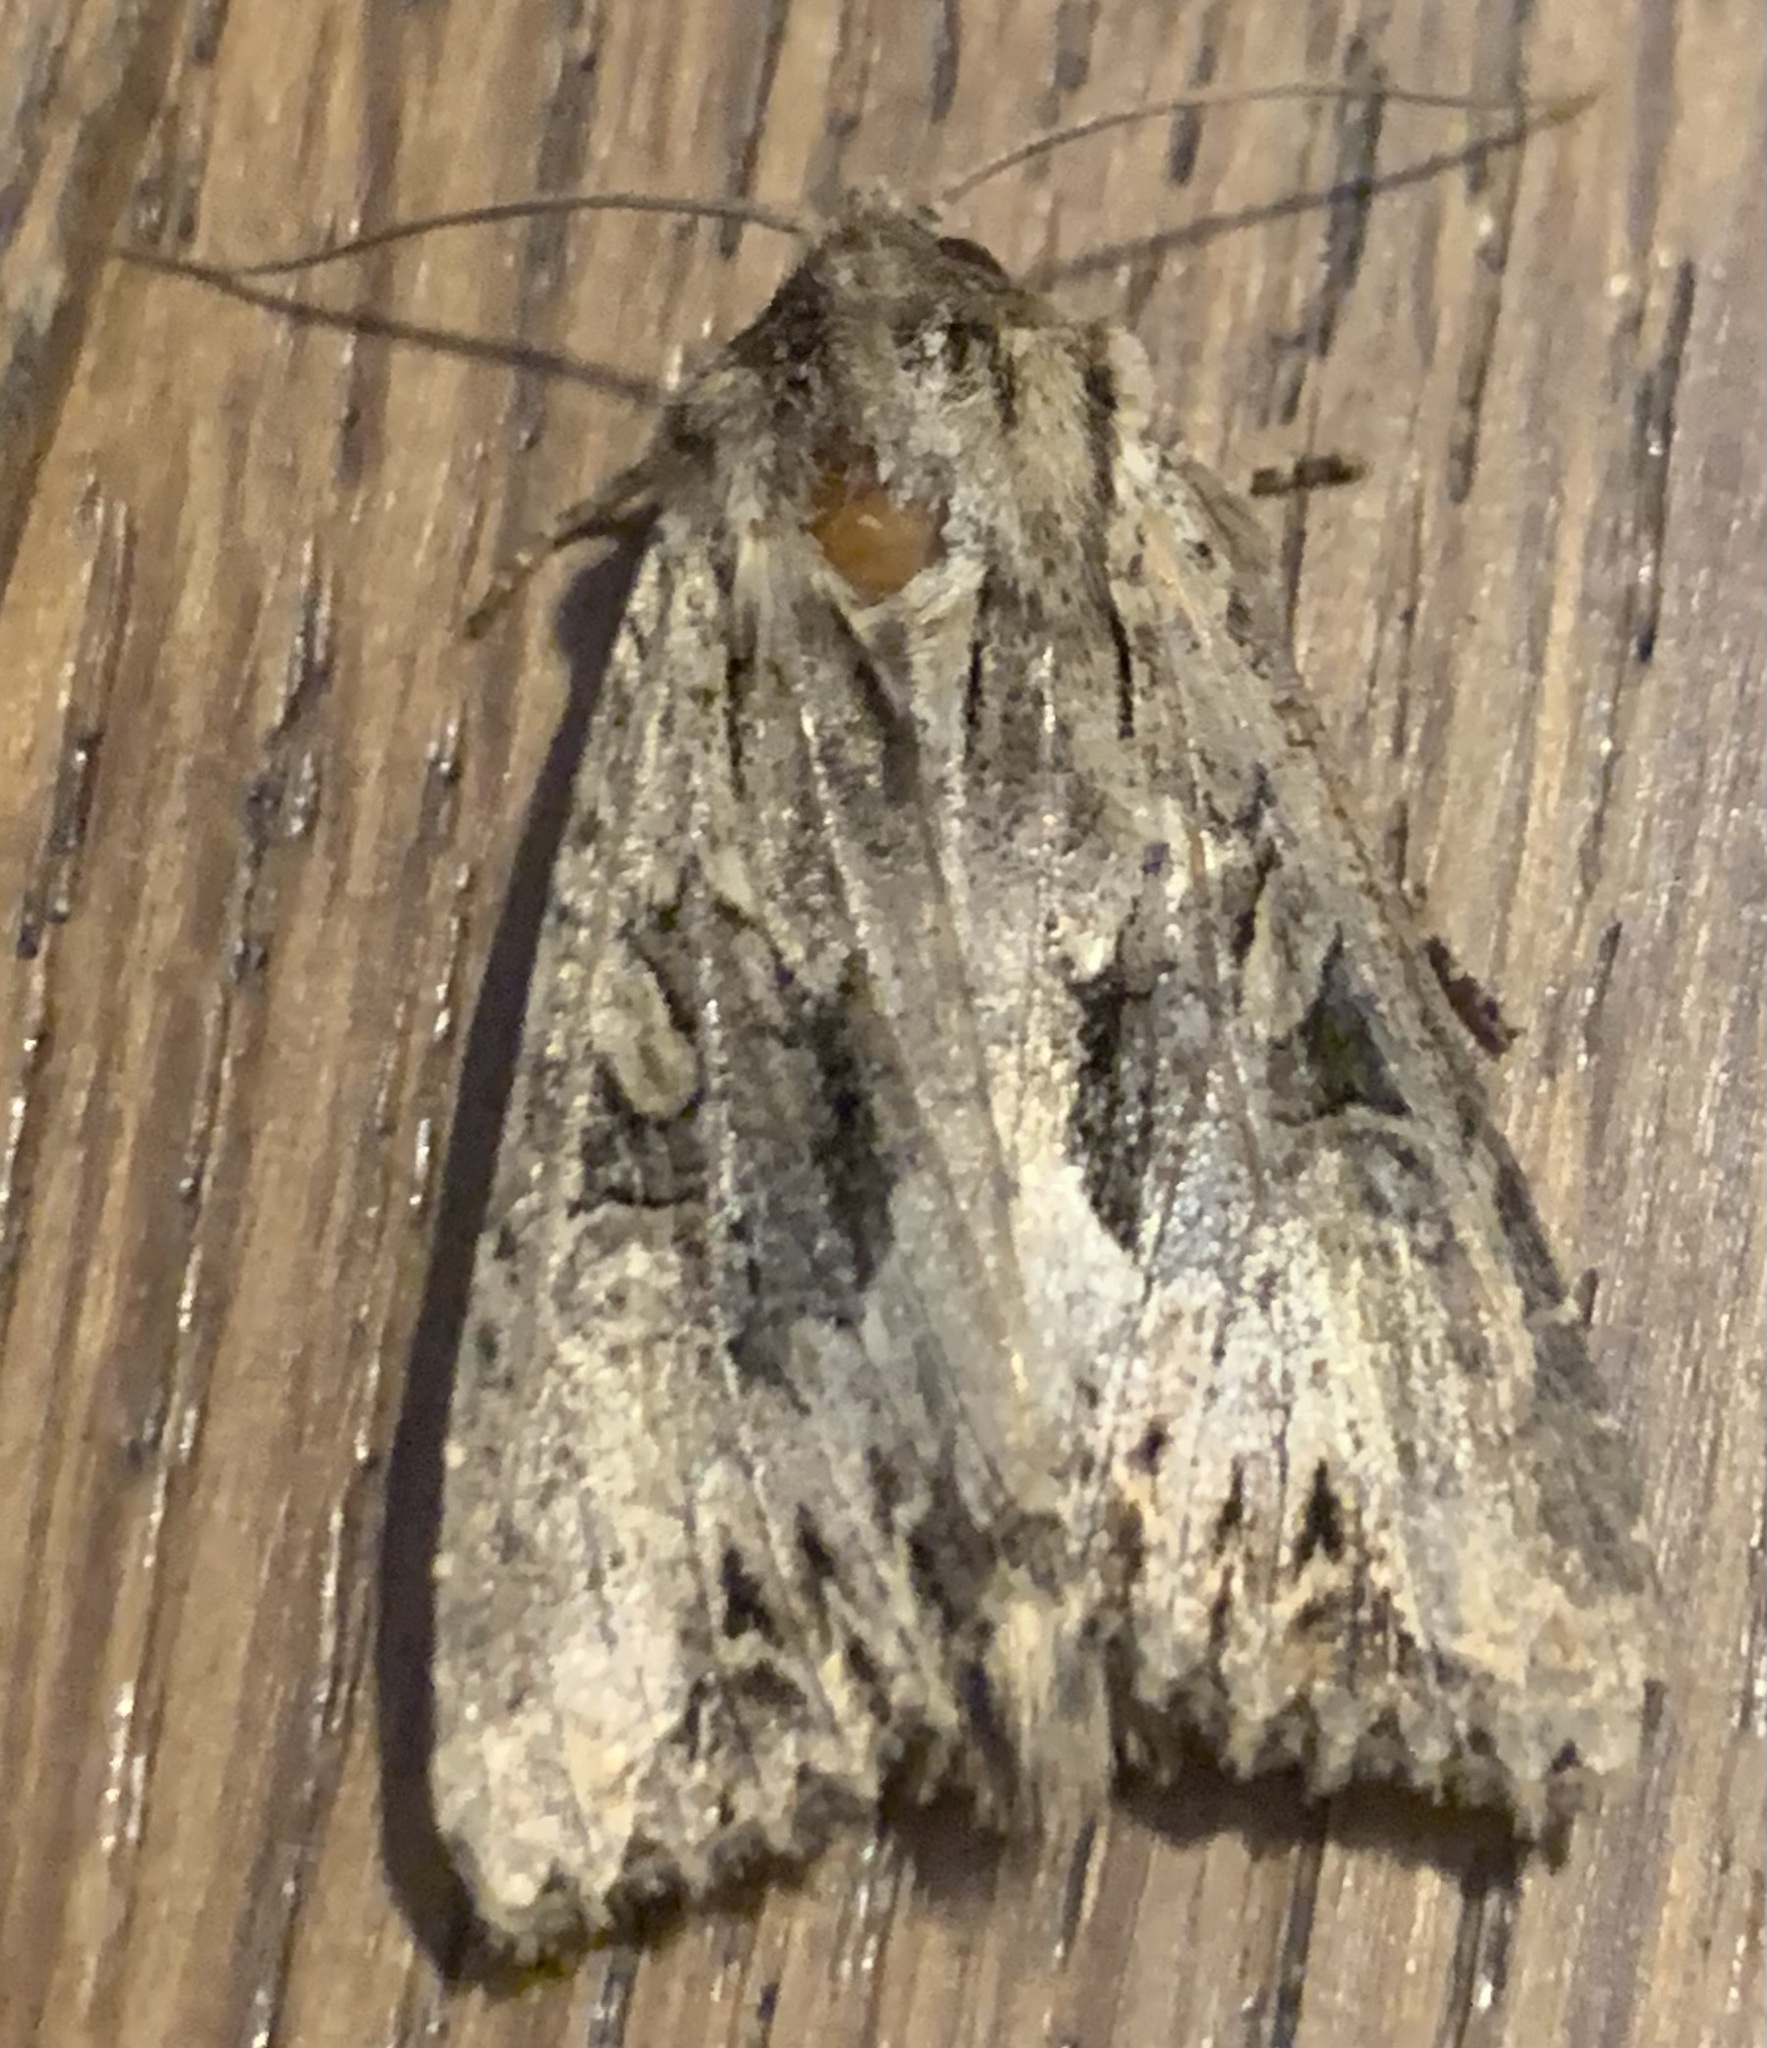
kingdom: Animalia
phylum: Arthropoda
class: Insecta
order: Lepidoptera
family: Noctuidae
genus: Apamea
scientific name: Apamea monoglypha
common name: Dark arches
